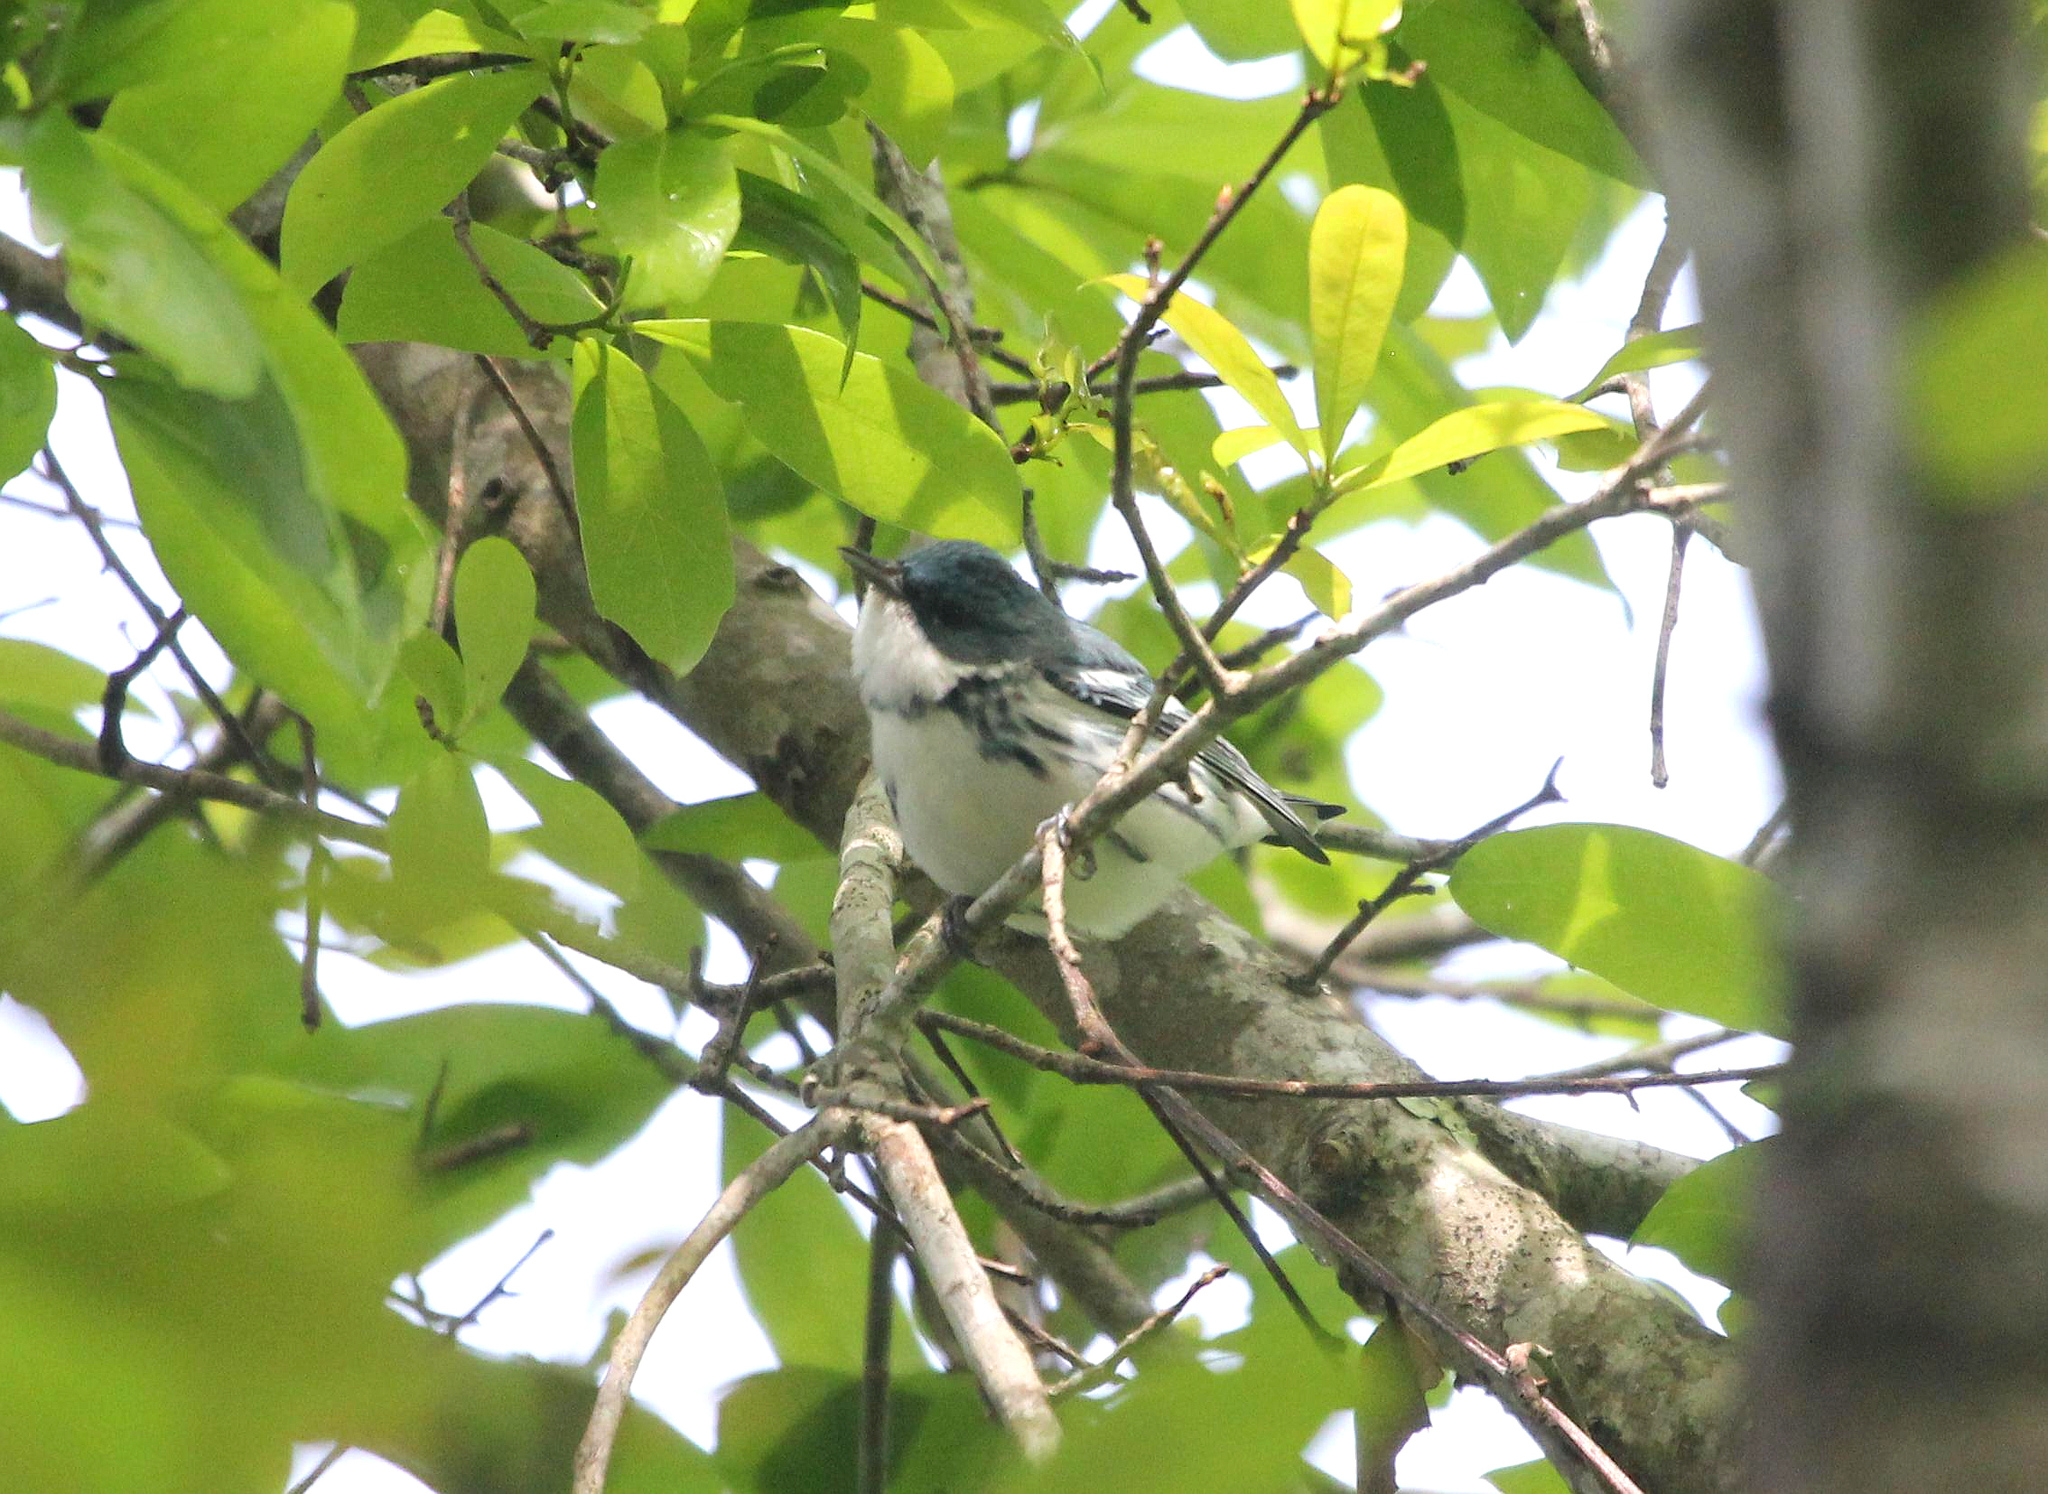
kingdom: Animalia
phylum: Chordata
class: Aves
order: Passeriformes
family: Parulidae
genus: Setophaga
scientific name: Setophaga cerulea
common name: Cerulean warbler
